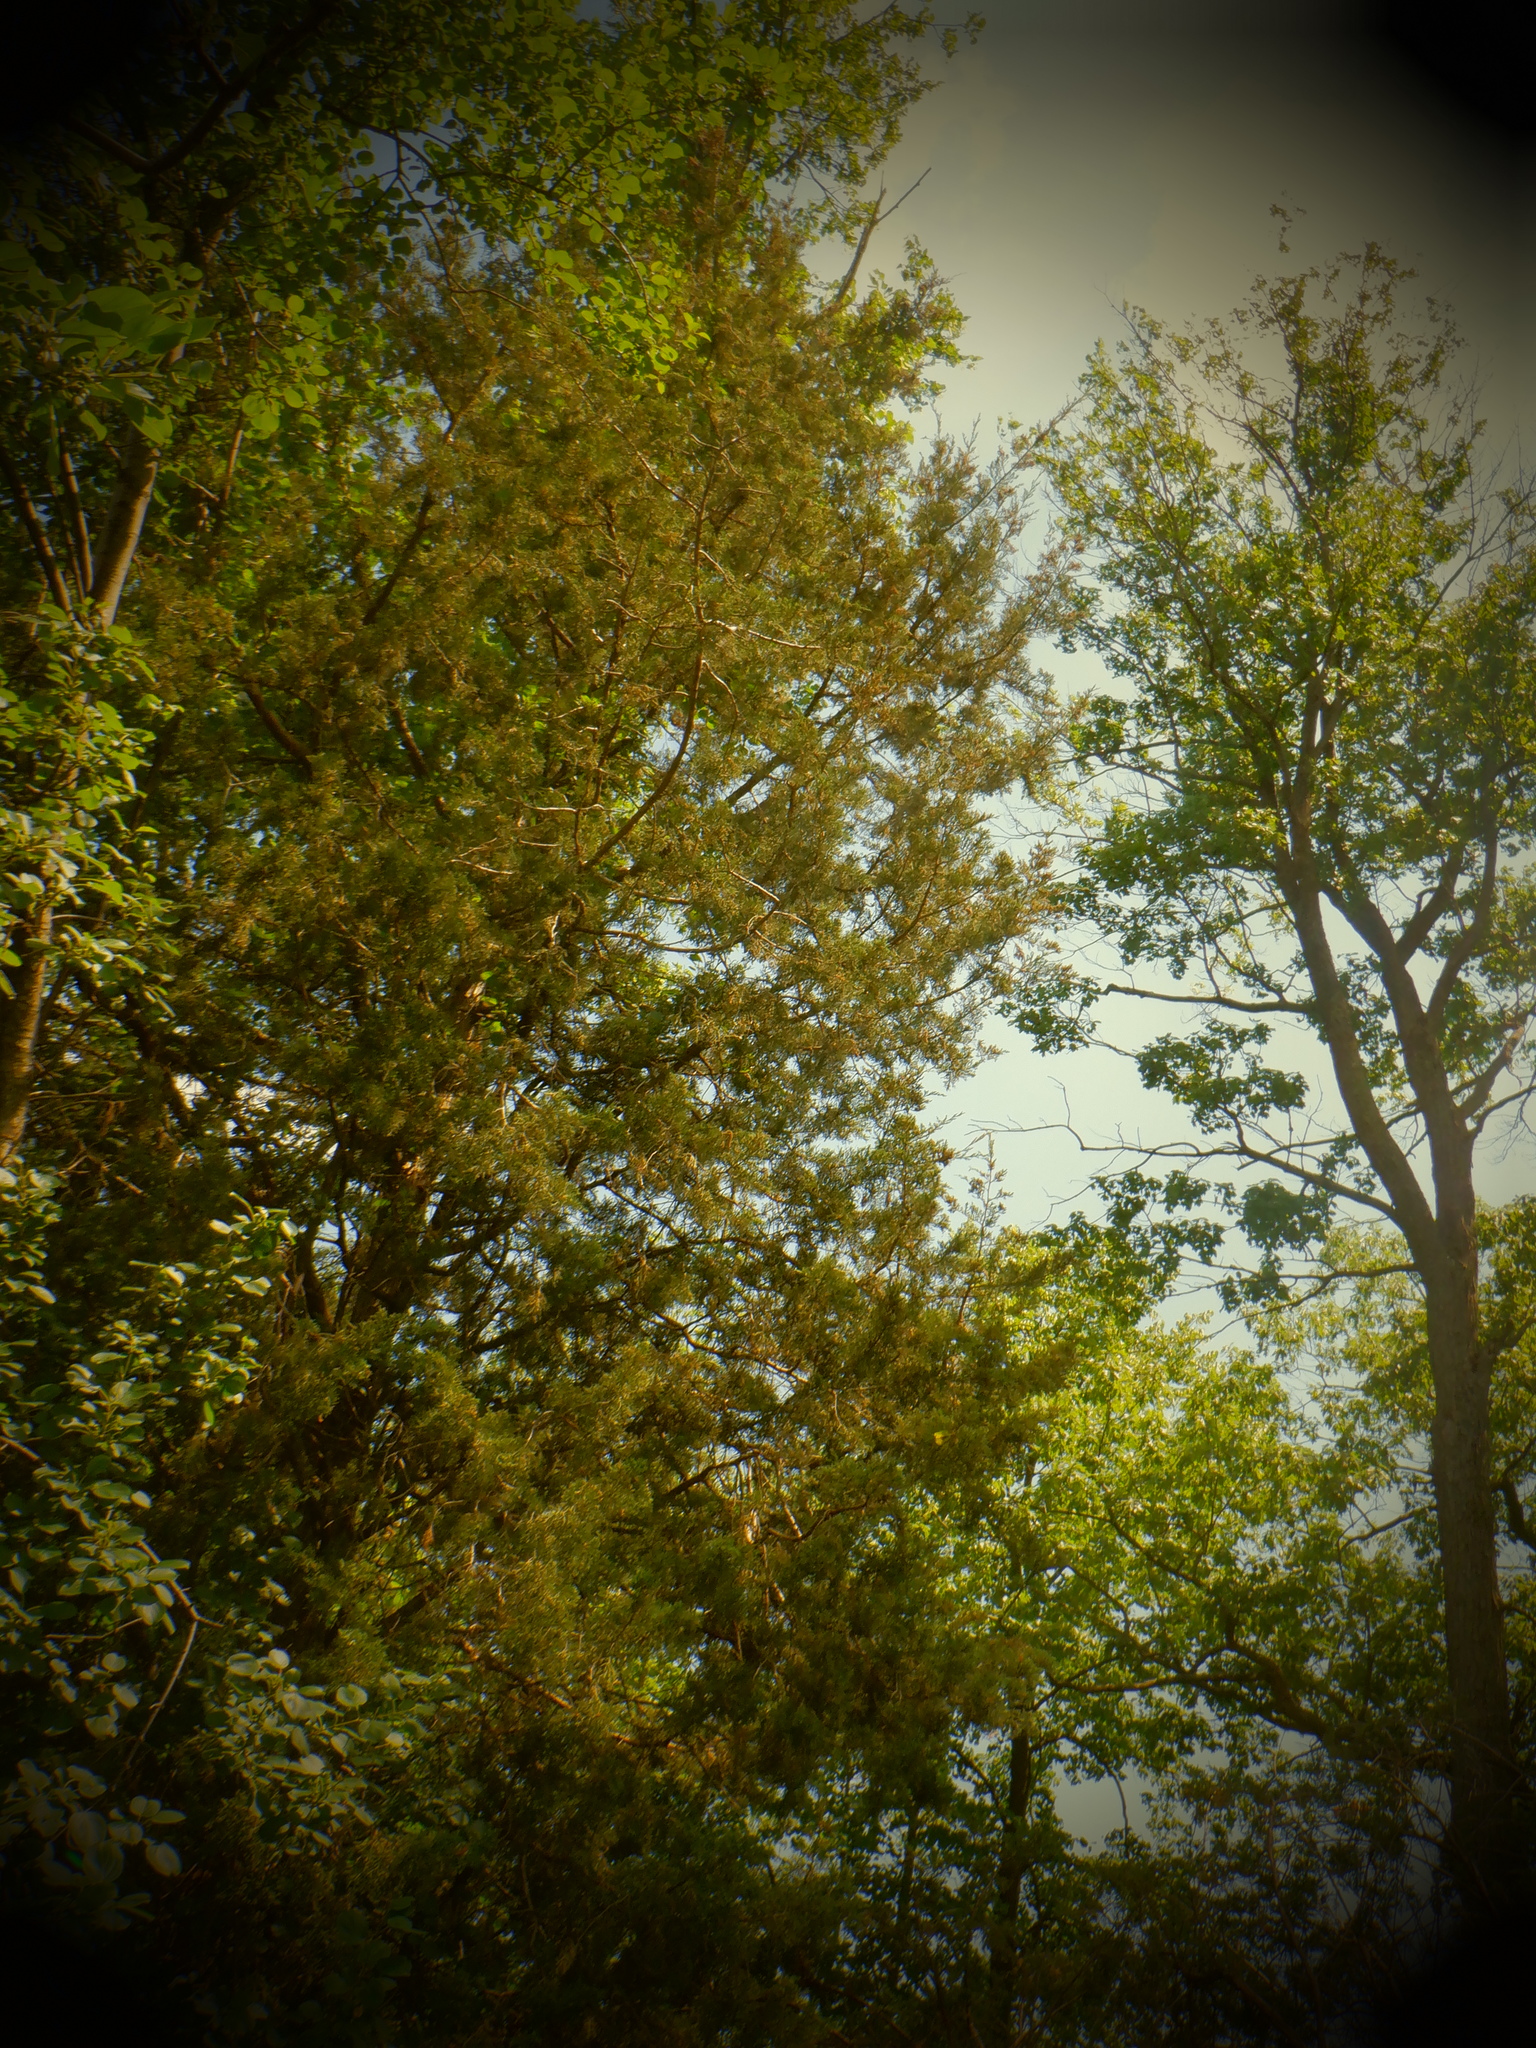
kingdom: Plantae
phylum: Tracheophyta
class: Pinopsida
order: Pinales
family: Cupressaceae
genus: Juniperus
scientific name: Juniperus virginiana
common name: Red juniper
